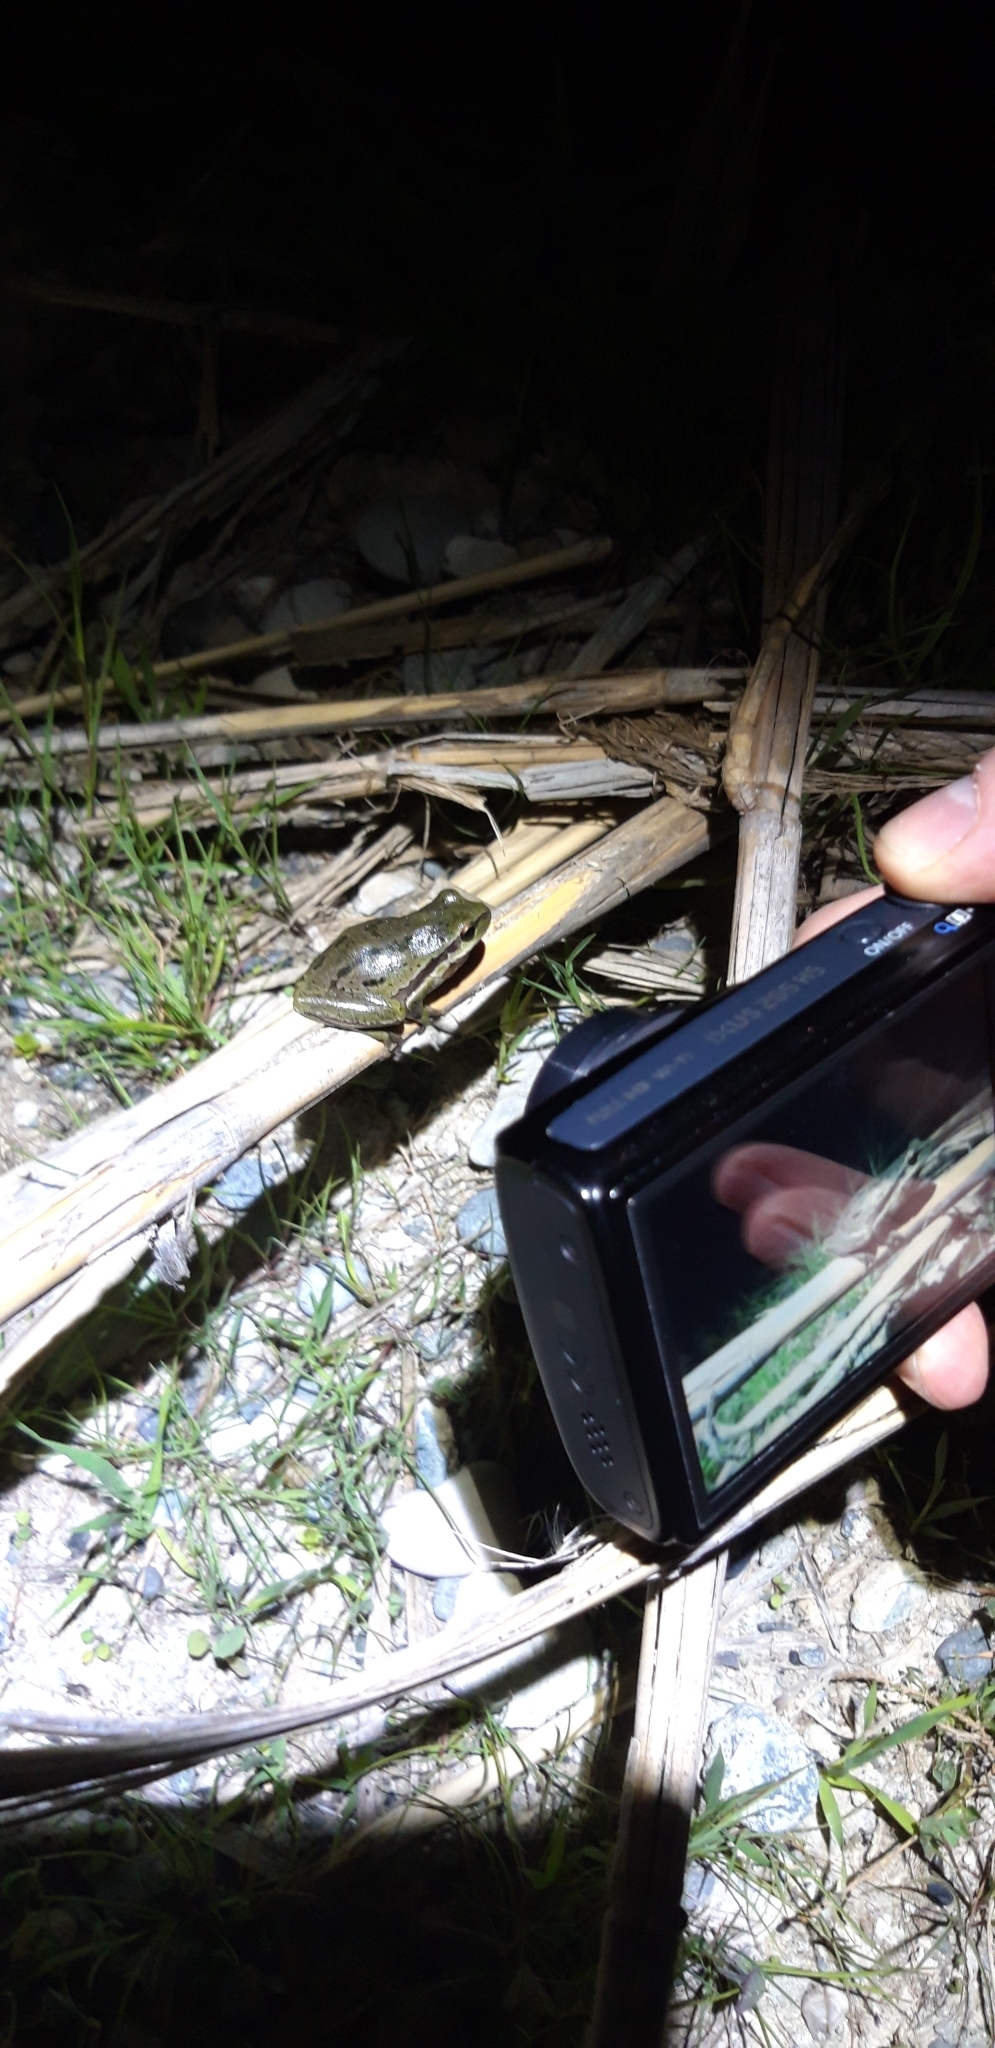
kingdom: Animalia
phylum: Chordata
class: Amphibia
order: Anura
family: Hylidae
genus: Hyla
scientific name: Hyla savignyi
